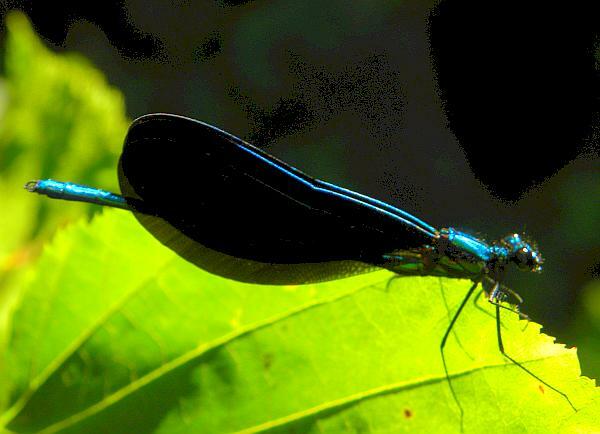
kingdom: Animalia
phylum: Arthropoda
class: Insecta
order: Odonata
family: Calopterygidae
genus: Calopteryx
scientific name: Calopteryx maculata
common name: Ebony jewelwing
